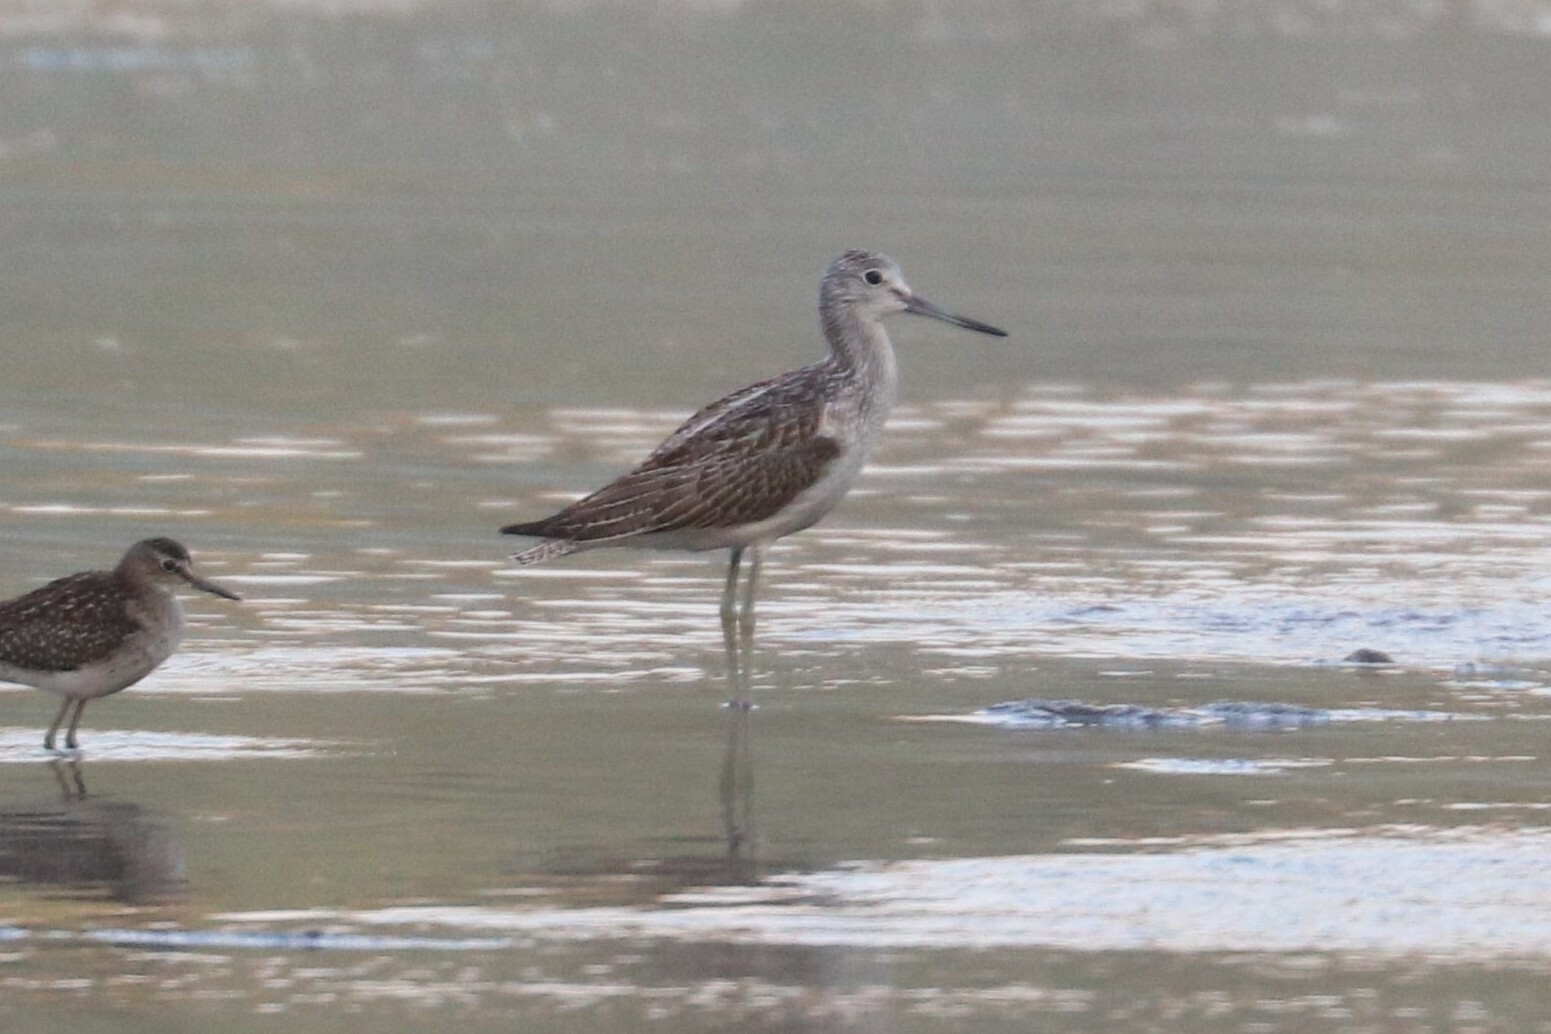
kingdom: Animalia
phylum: Chordata
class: Aves
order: Charadriiformes
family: Scolopacidae
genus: Tringa
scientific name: Tringa nebularia
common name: Common greenshank
